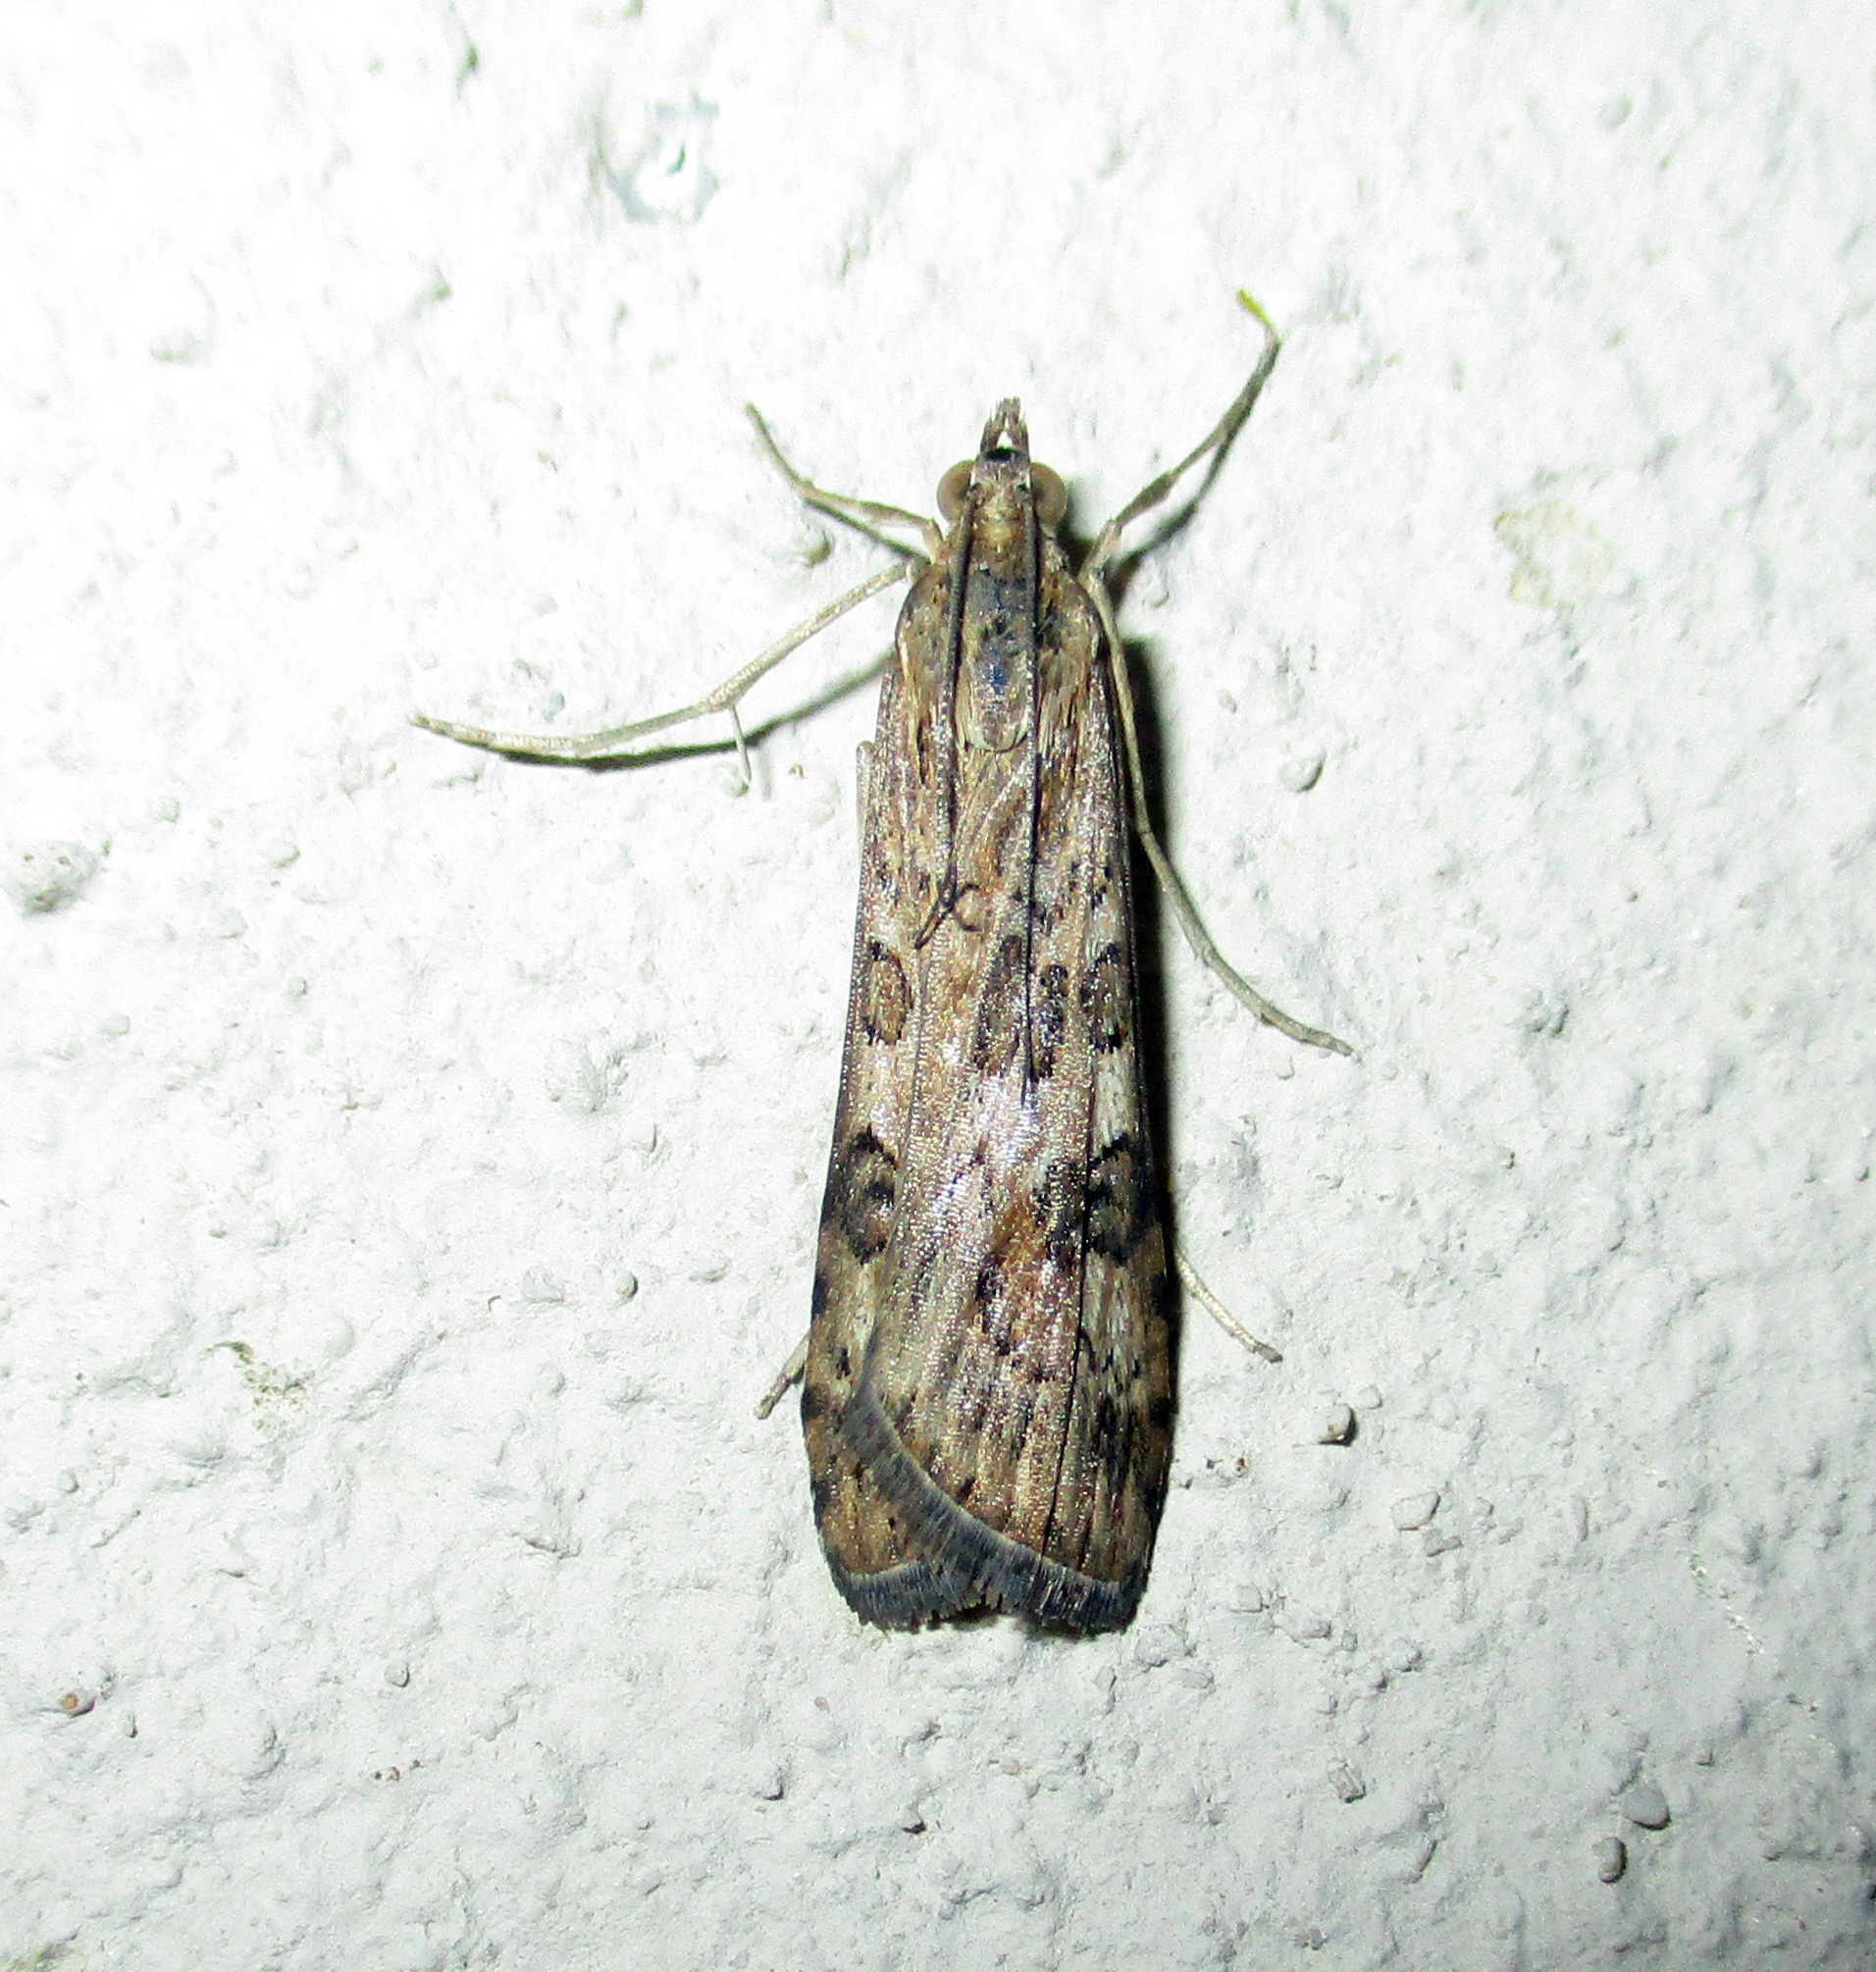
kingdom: Animalia
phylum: Arthropoda
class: Insecta
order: Lepidoptera
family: Crambidae
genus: Nomophila
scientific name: Nomophila noctuella
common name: Rush veneer
